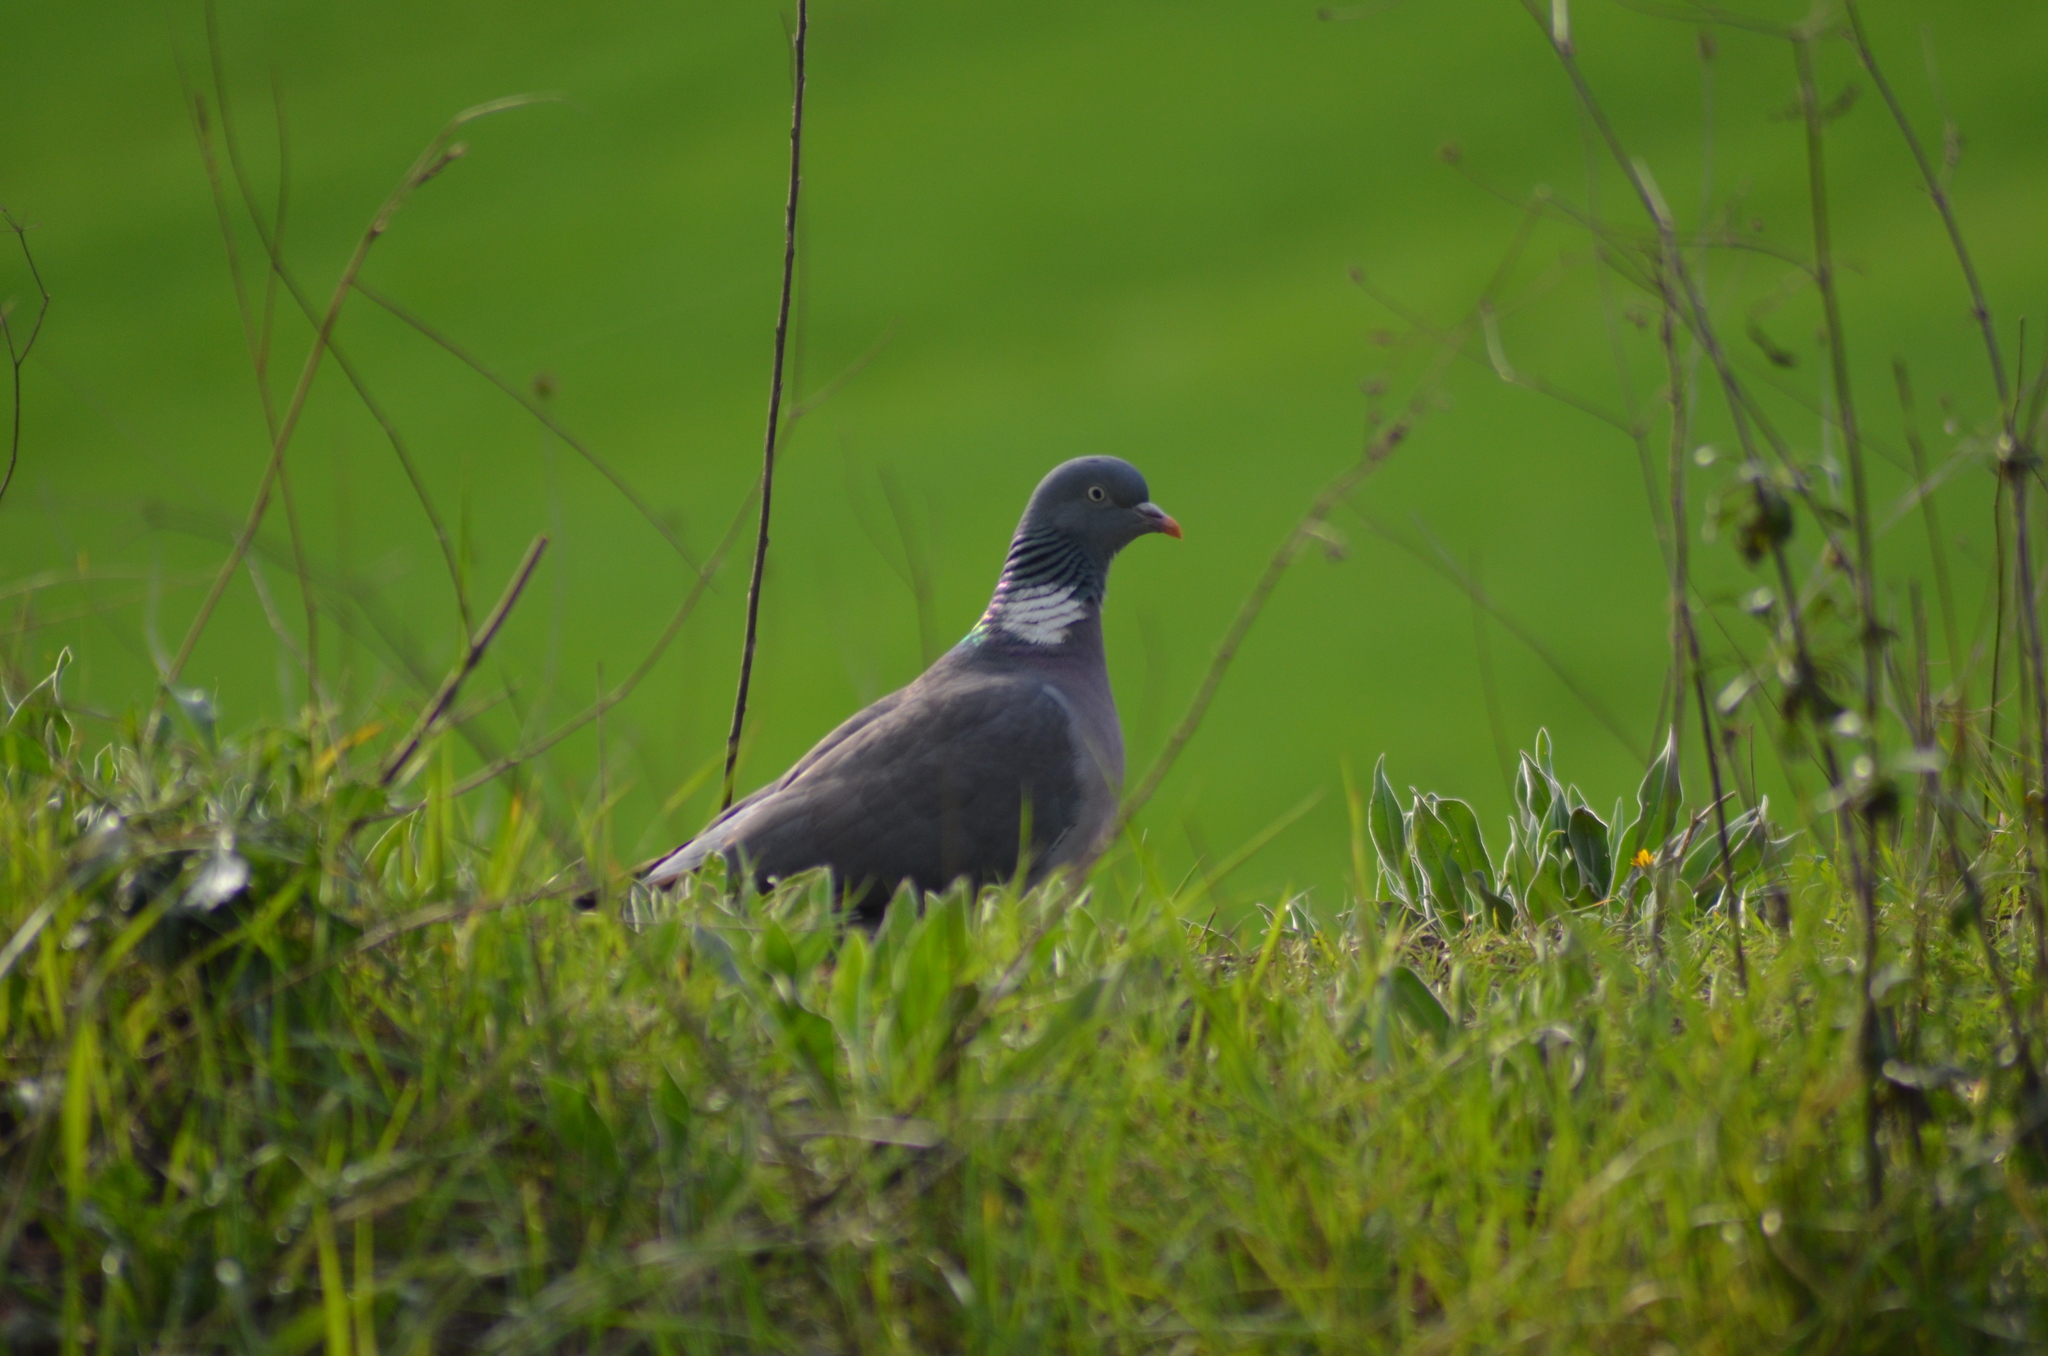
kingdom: Animalia
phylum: Chordata
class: Aves
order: Columbiformes
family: Columbidae
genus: Columba
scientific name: Columba palumbus
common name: Common wood pigeon
